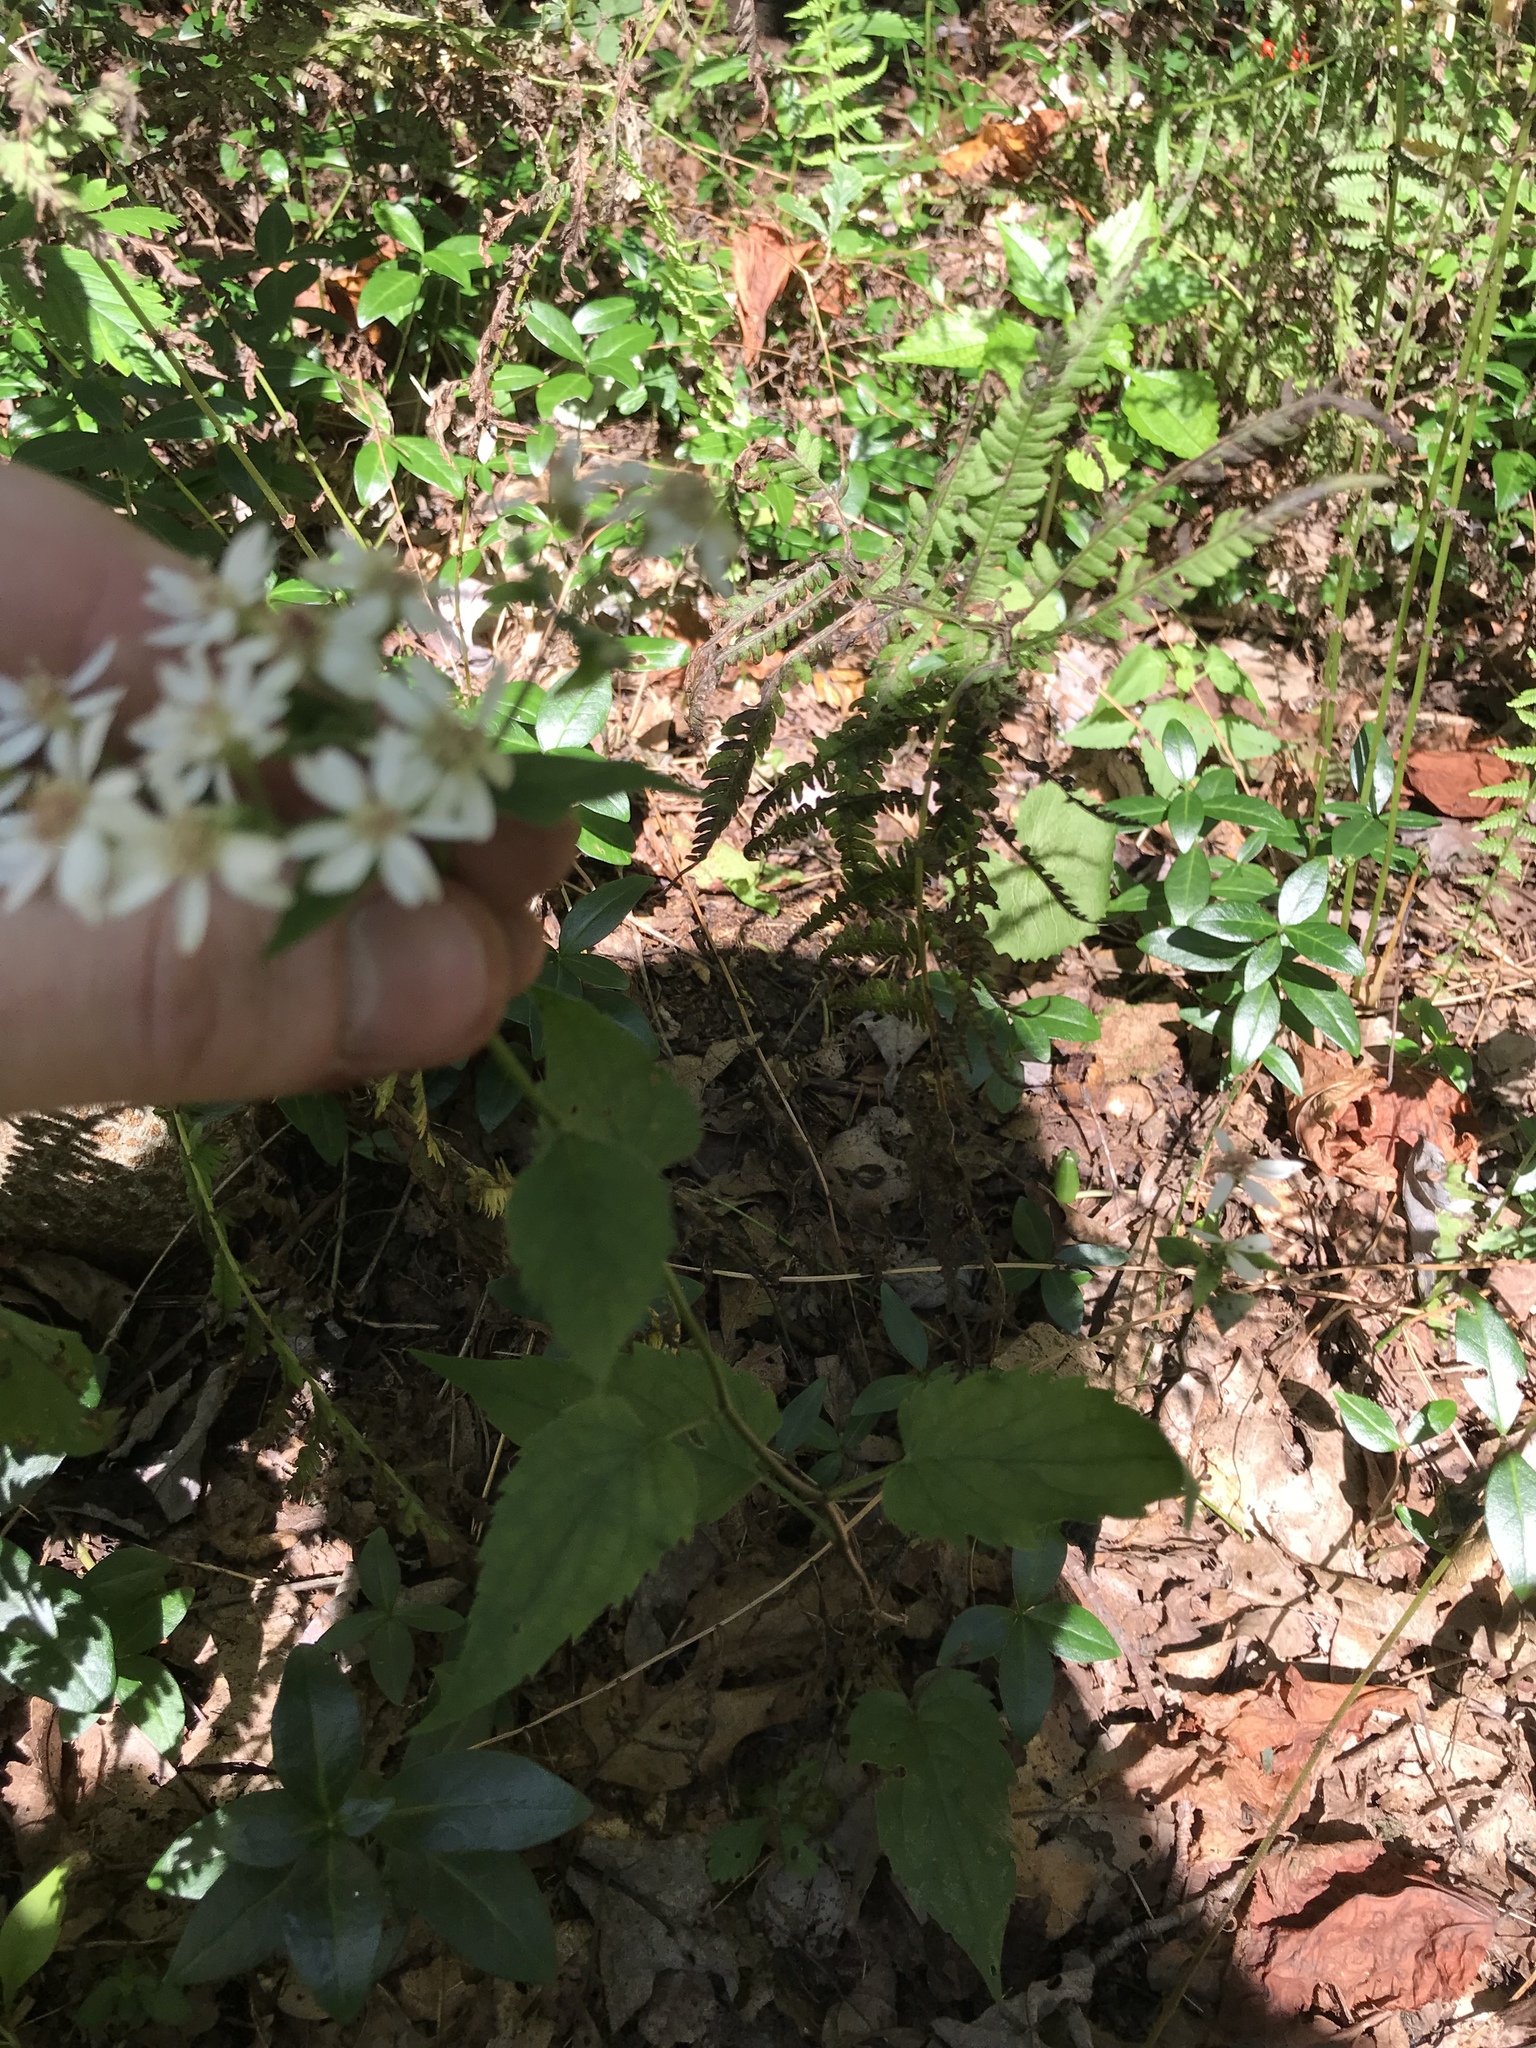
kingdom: Plantae
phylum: Tracheophyta
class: Magnoliopsida
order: Asterales
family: Asteraceae
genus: Eurybia
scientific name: Eurybia divaricata
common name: White wood aster
